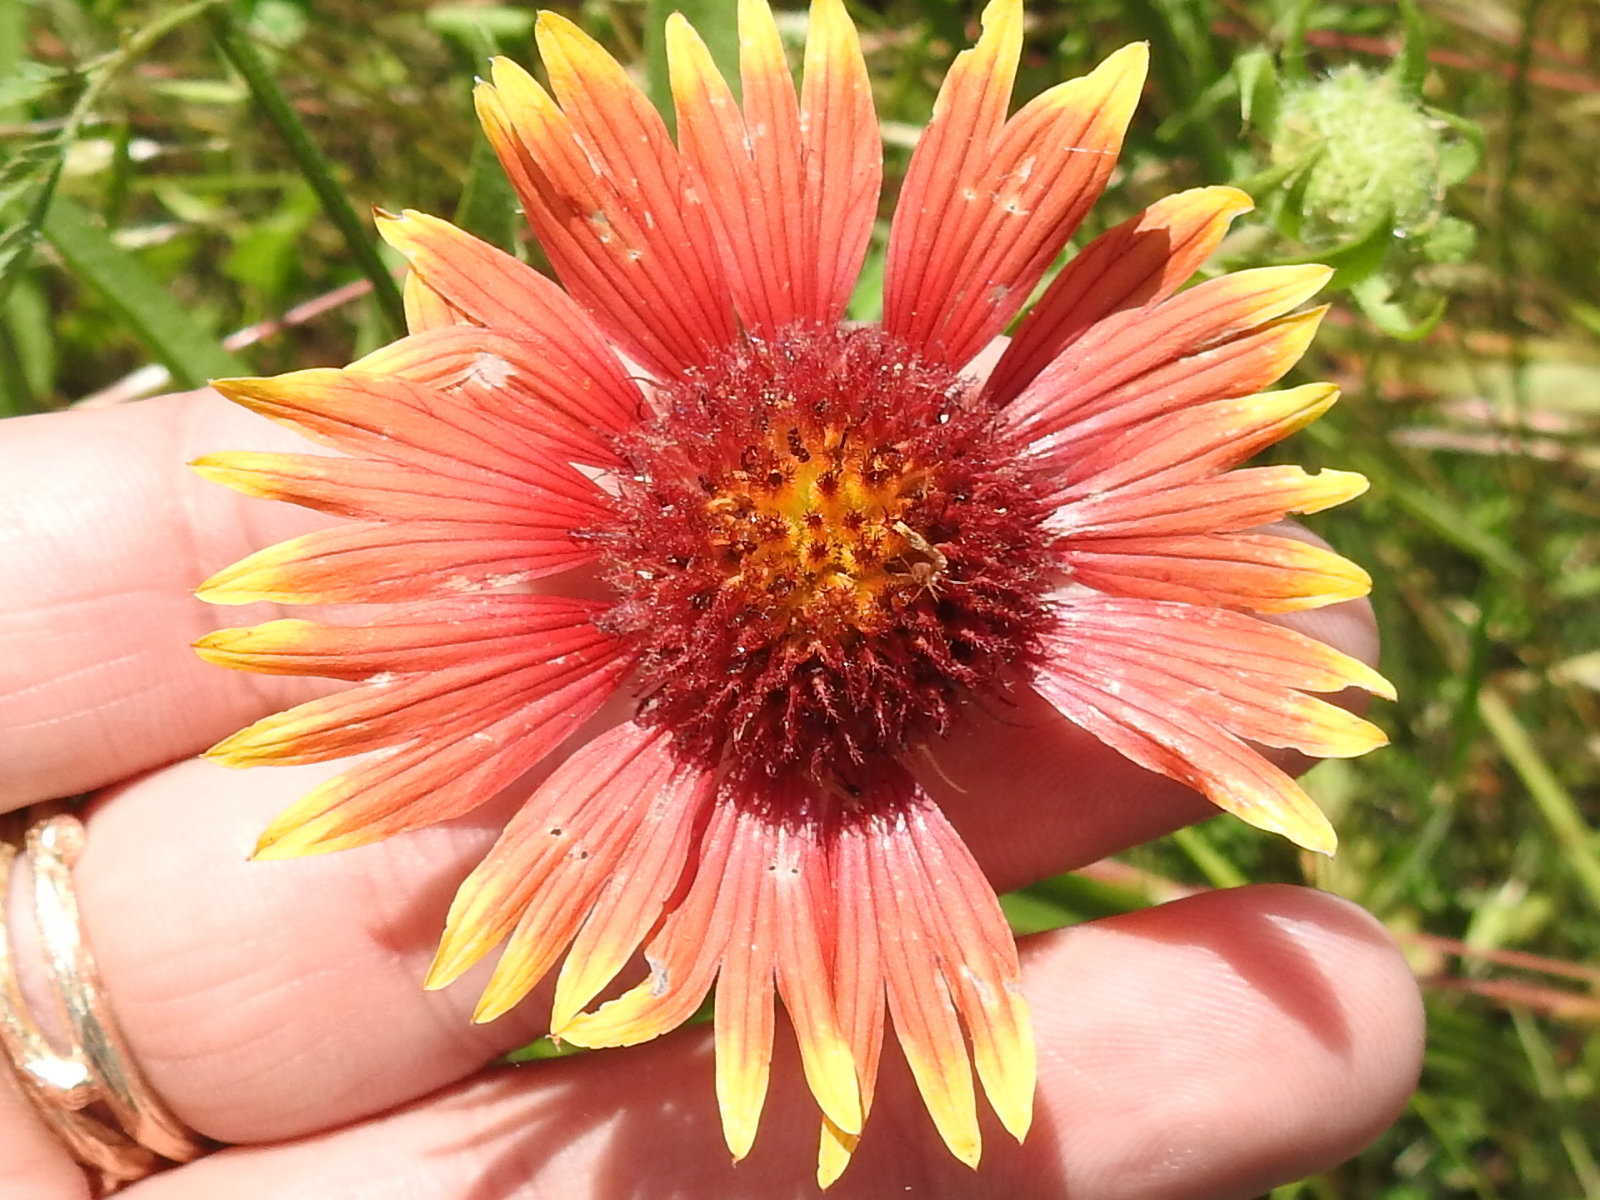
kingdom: Plantae
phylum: Tracheophyta
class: Magnoliopsida
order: Asterales
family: Asteraceae
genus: Gaillardia
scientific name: Gaillardia pulchella
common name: Firewheel
